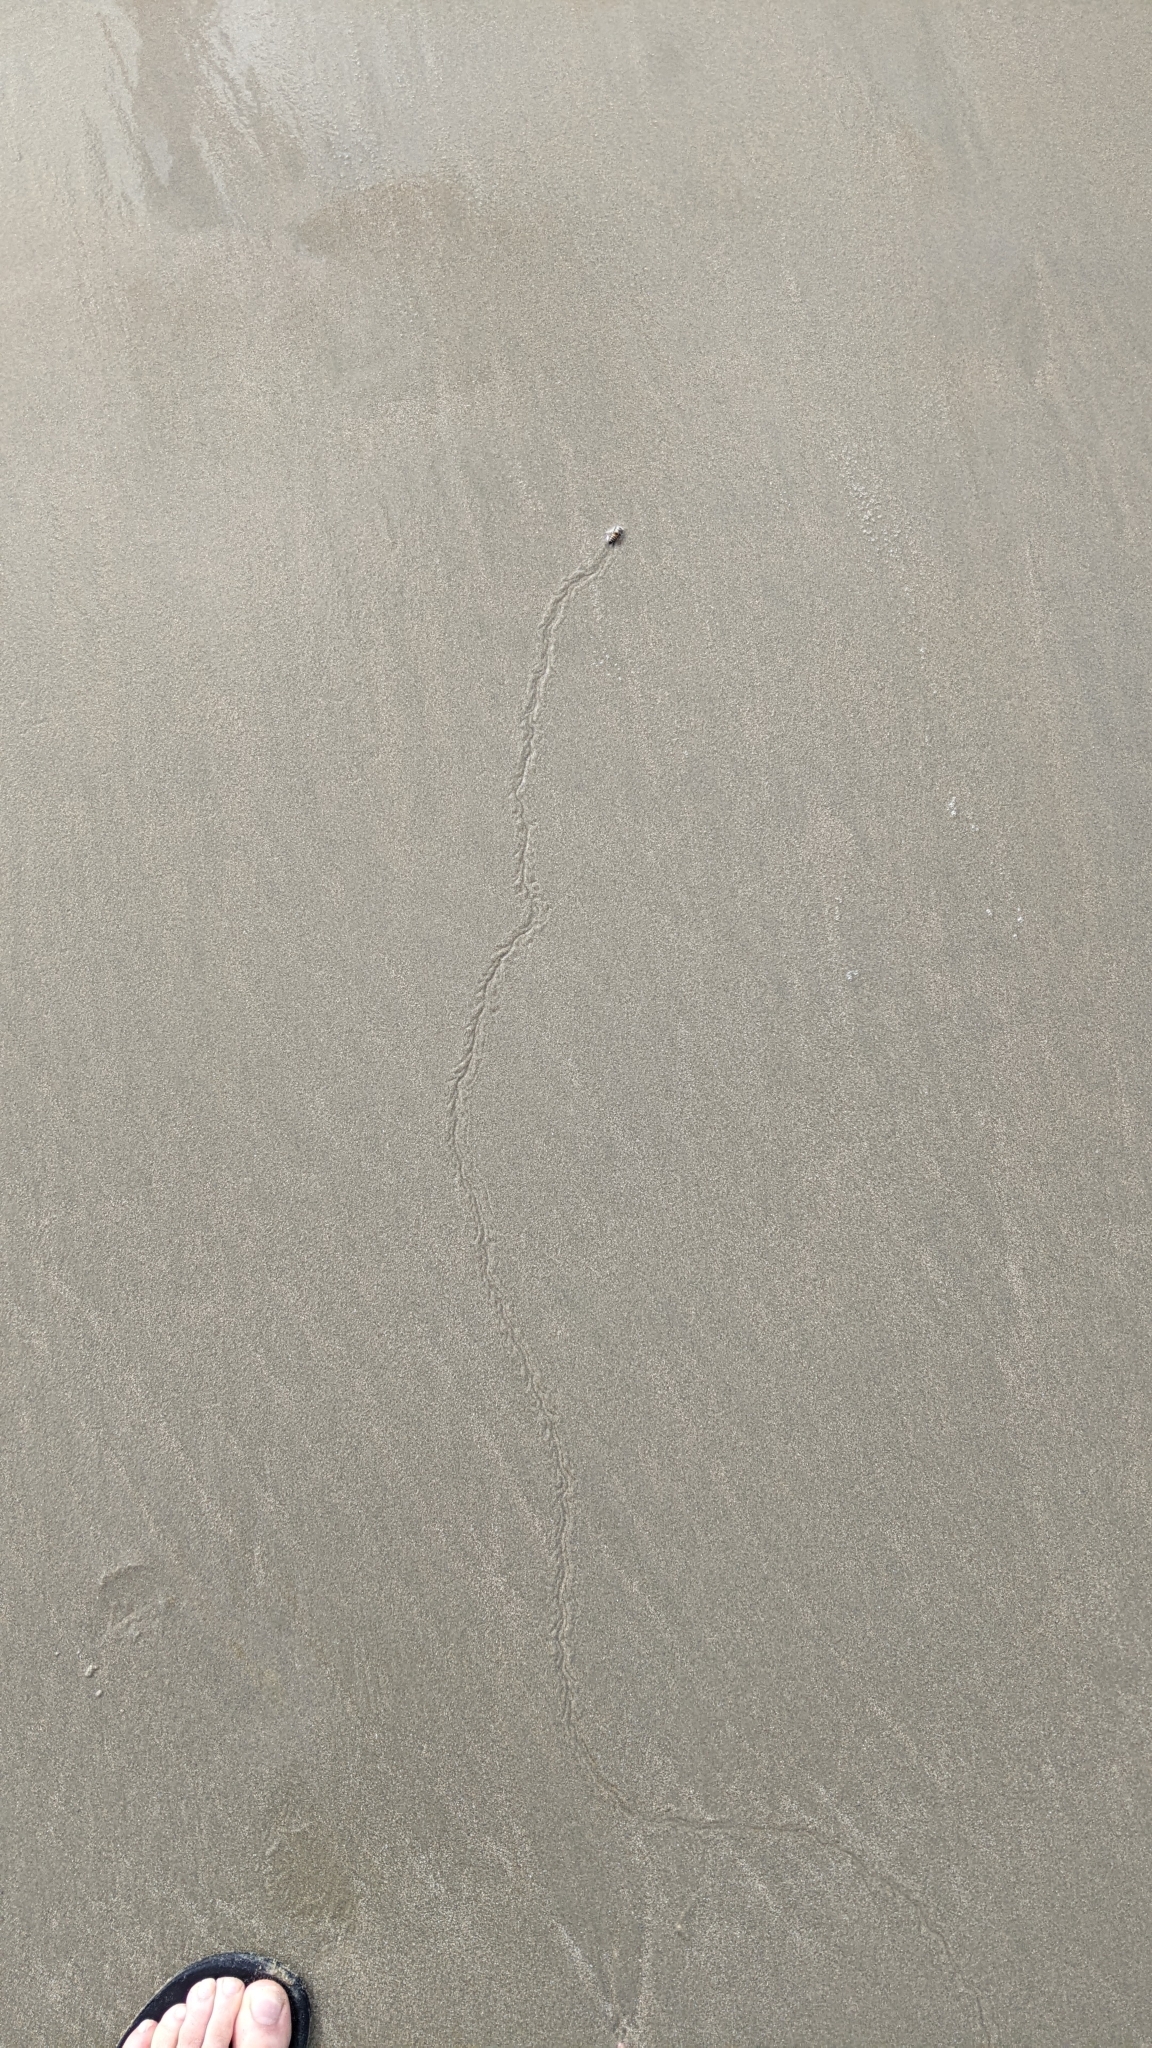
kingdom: Animalia
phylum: Arthropoda
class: Insecta
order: Hymenoptera
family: Apidae
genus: Apis
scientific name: Apis mellifera
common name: Honey bee
